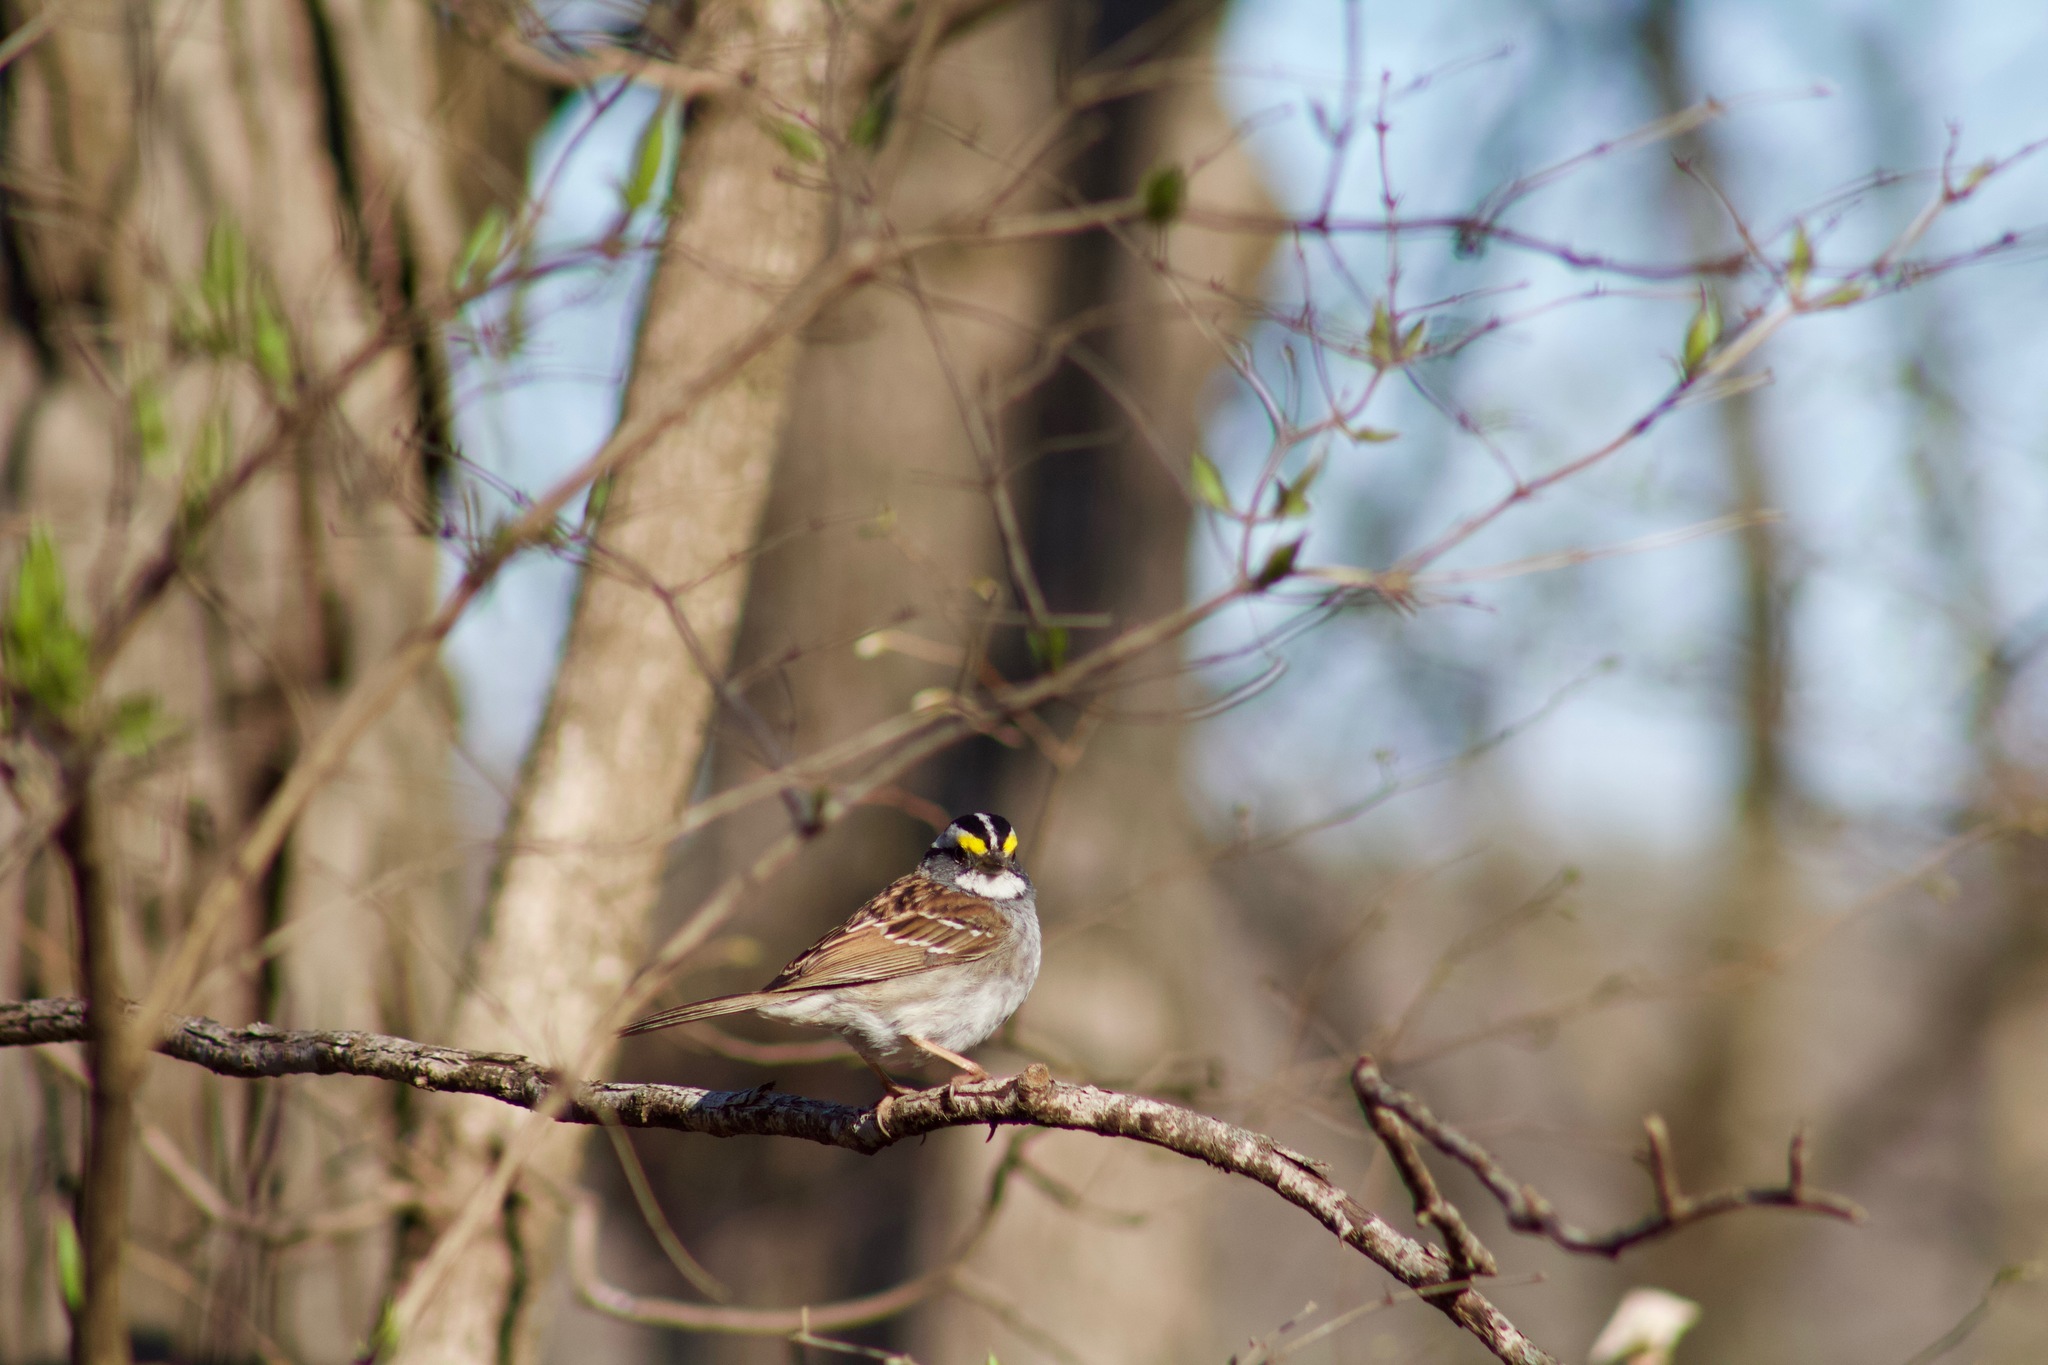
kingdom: Animalia
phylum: Chordata
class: Aves
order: Passeriformes
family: Passerellidae
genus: Zonotrichia
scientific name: Zonotrichia albicollis
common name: White-throated sparrow
